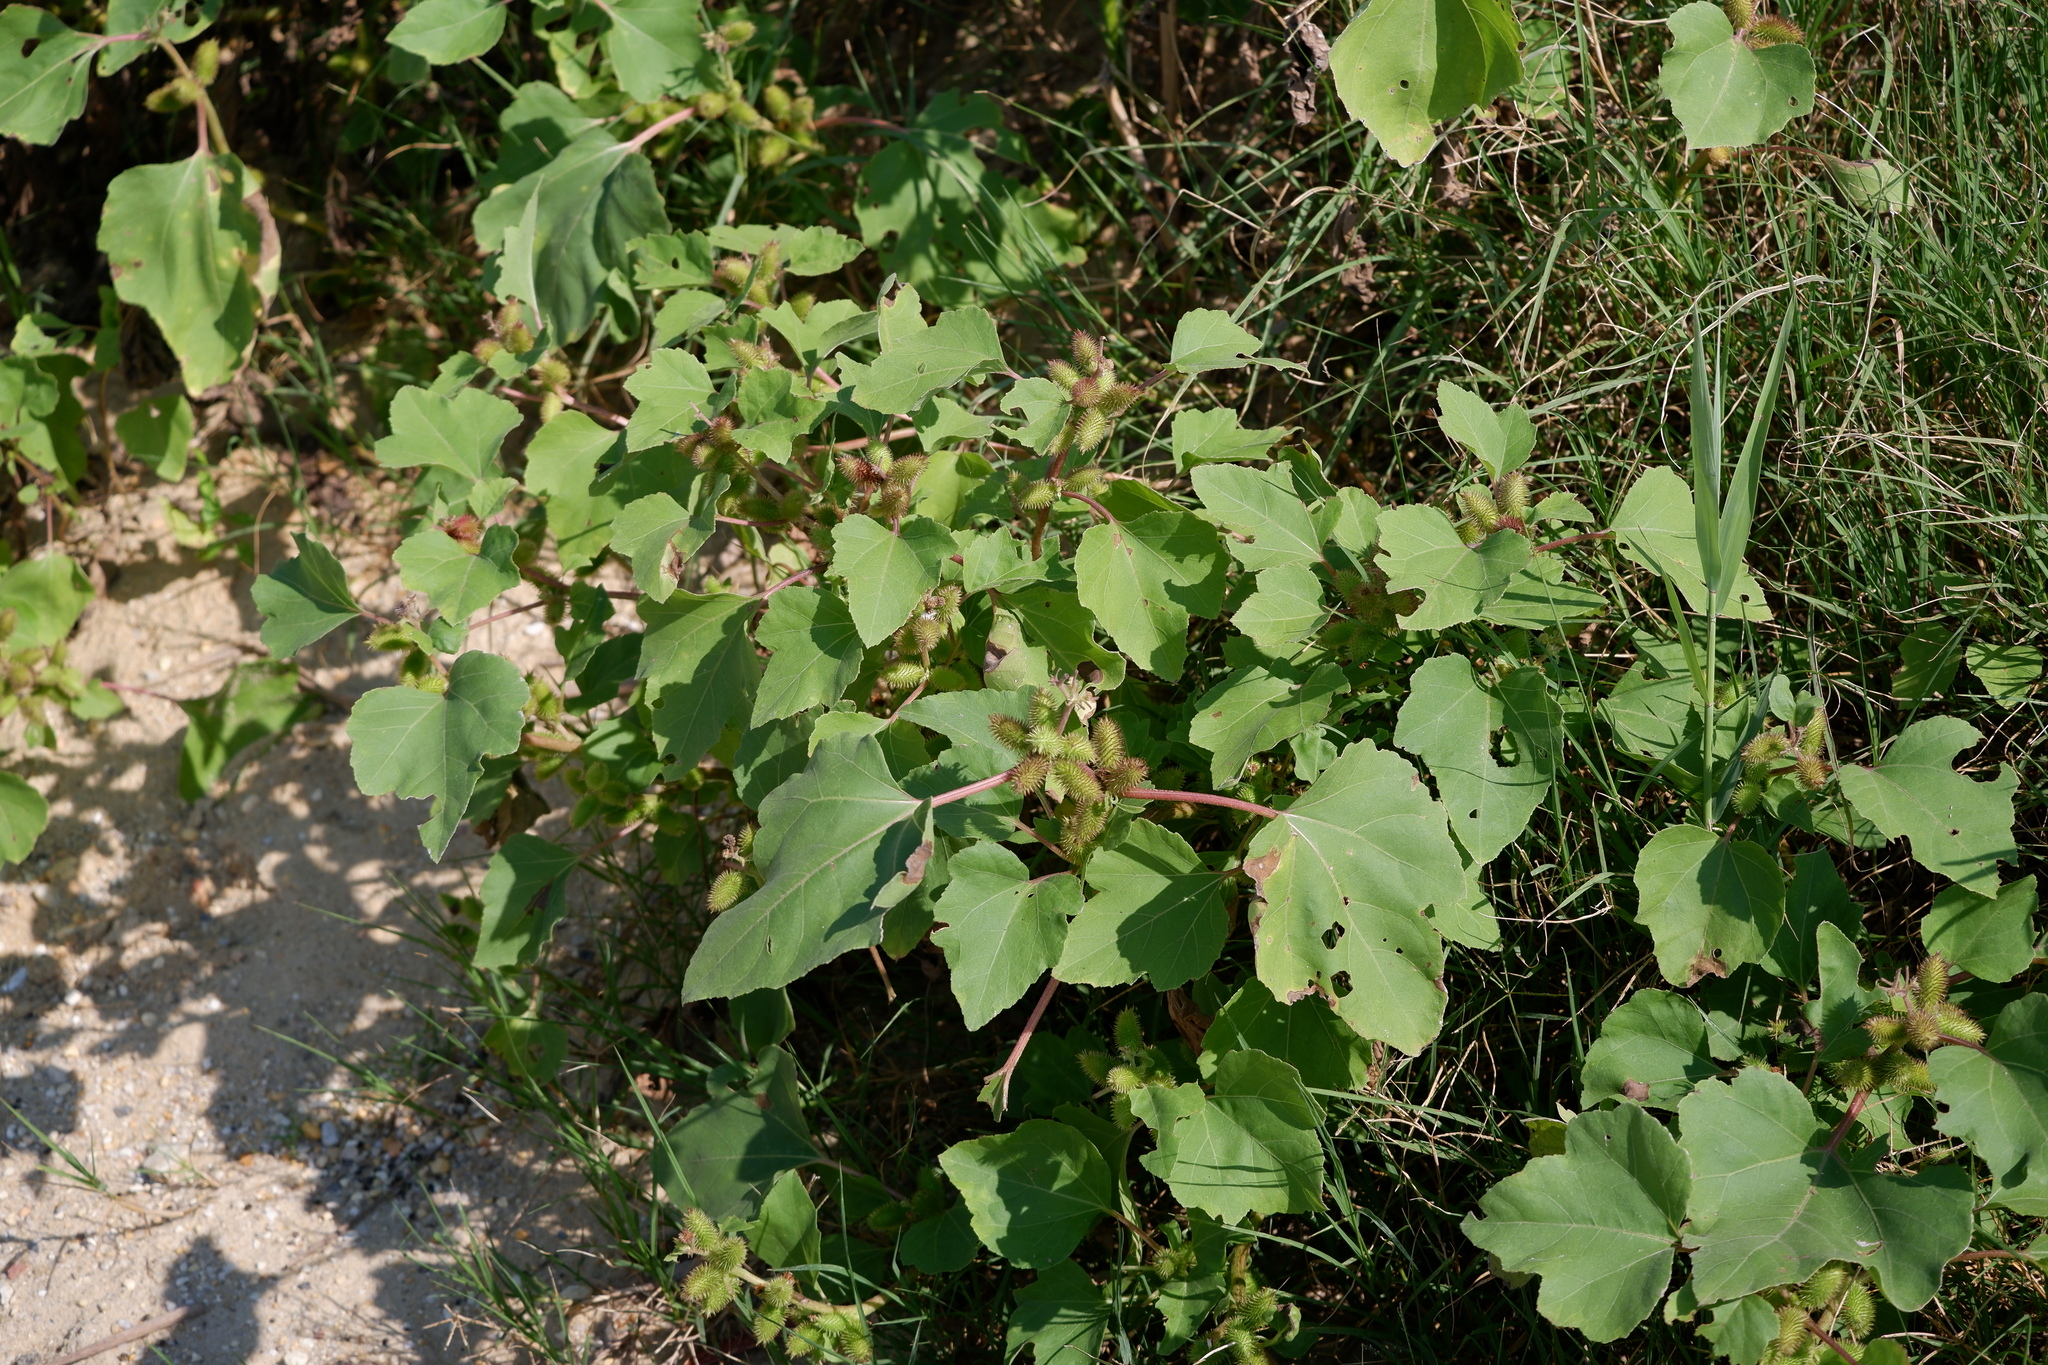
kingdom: Plantae
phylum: Tracheophyta
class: Magnoliopsida
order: Asterales
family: Asteraceae
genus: Xanthium
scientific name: Xanthium strumarium
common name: Rough cocklebur
